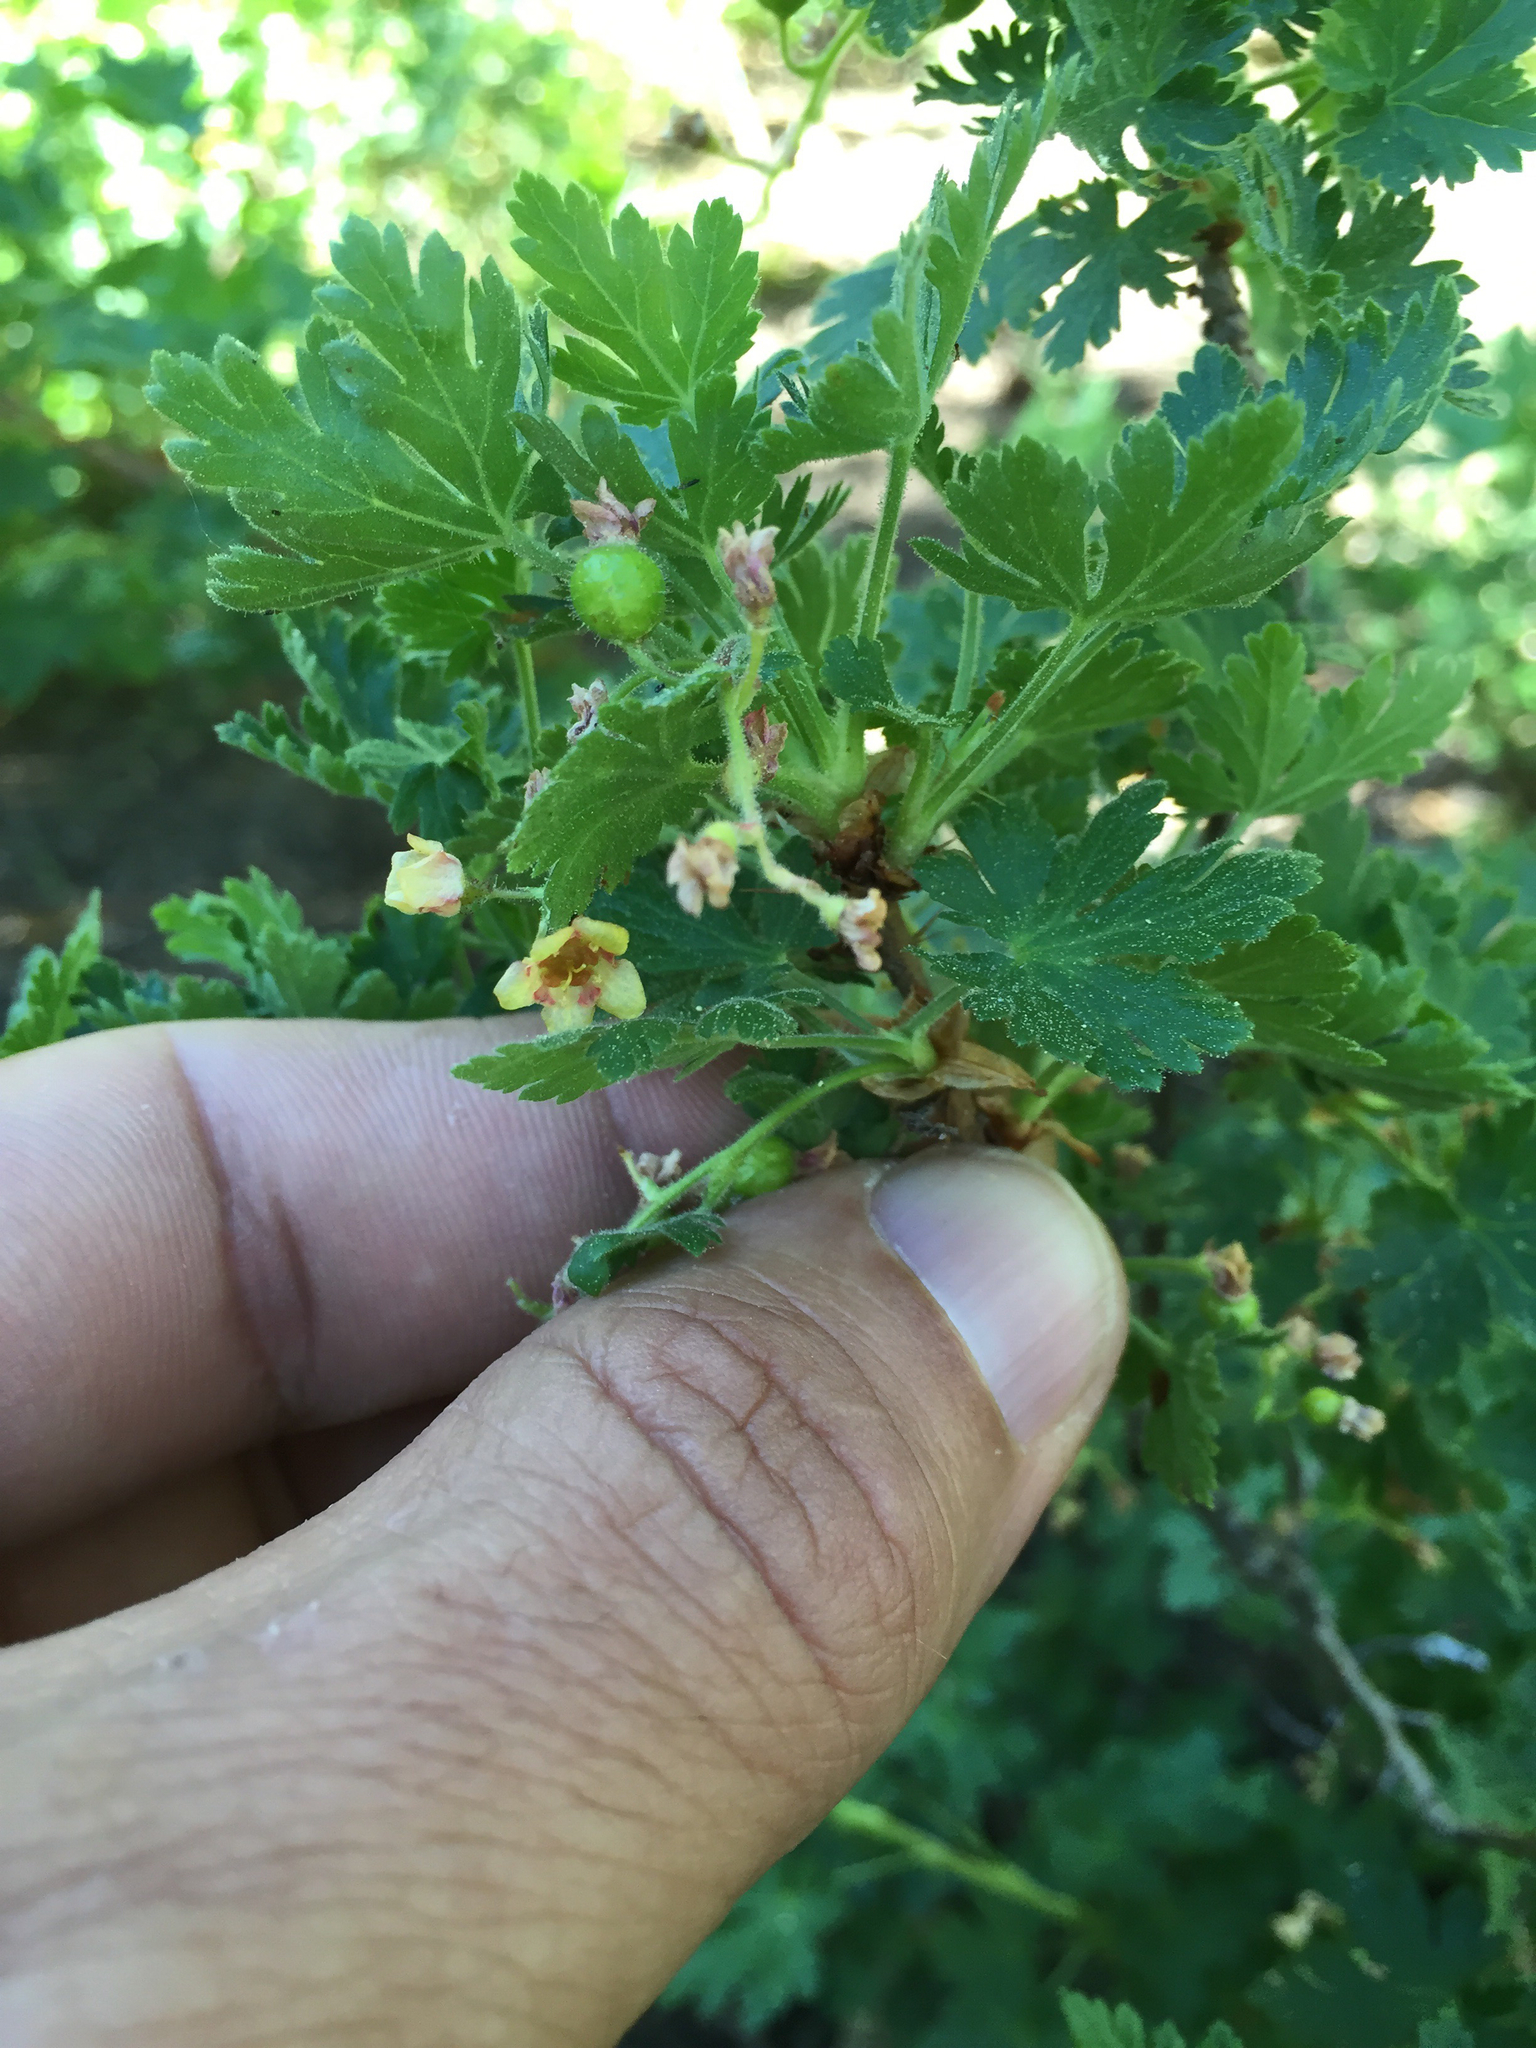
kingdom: Plantae
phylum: Tracheophyta
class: Magnoliopsida
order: Saxifragales
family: Grossulariaceae
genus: Ribes
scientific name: Ribes montigenum
